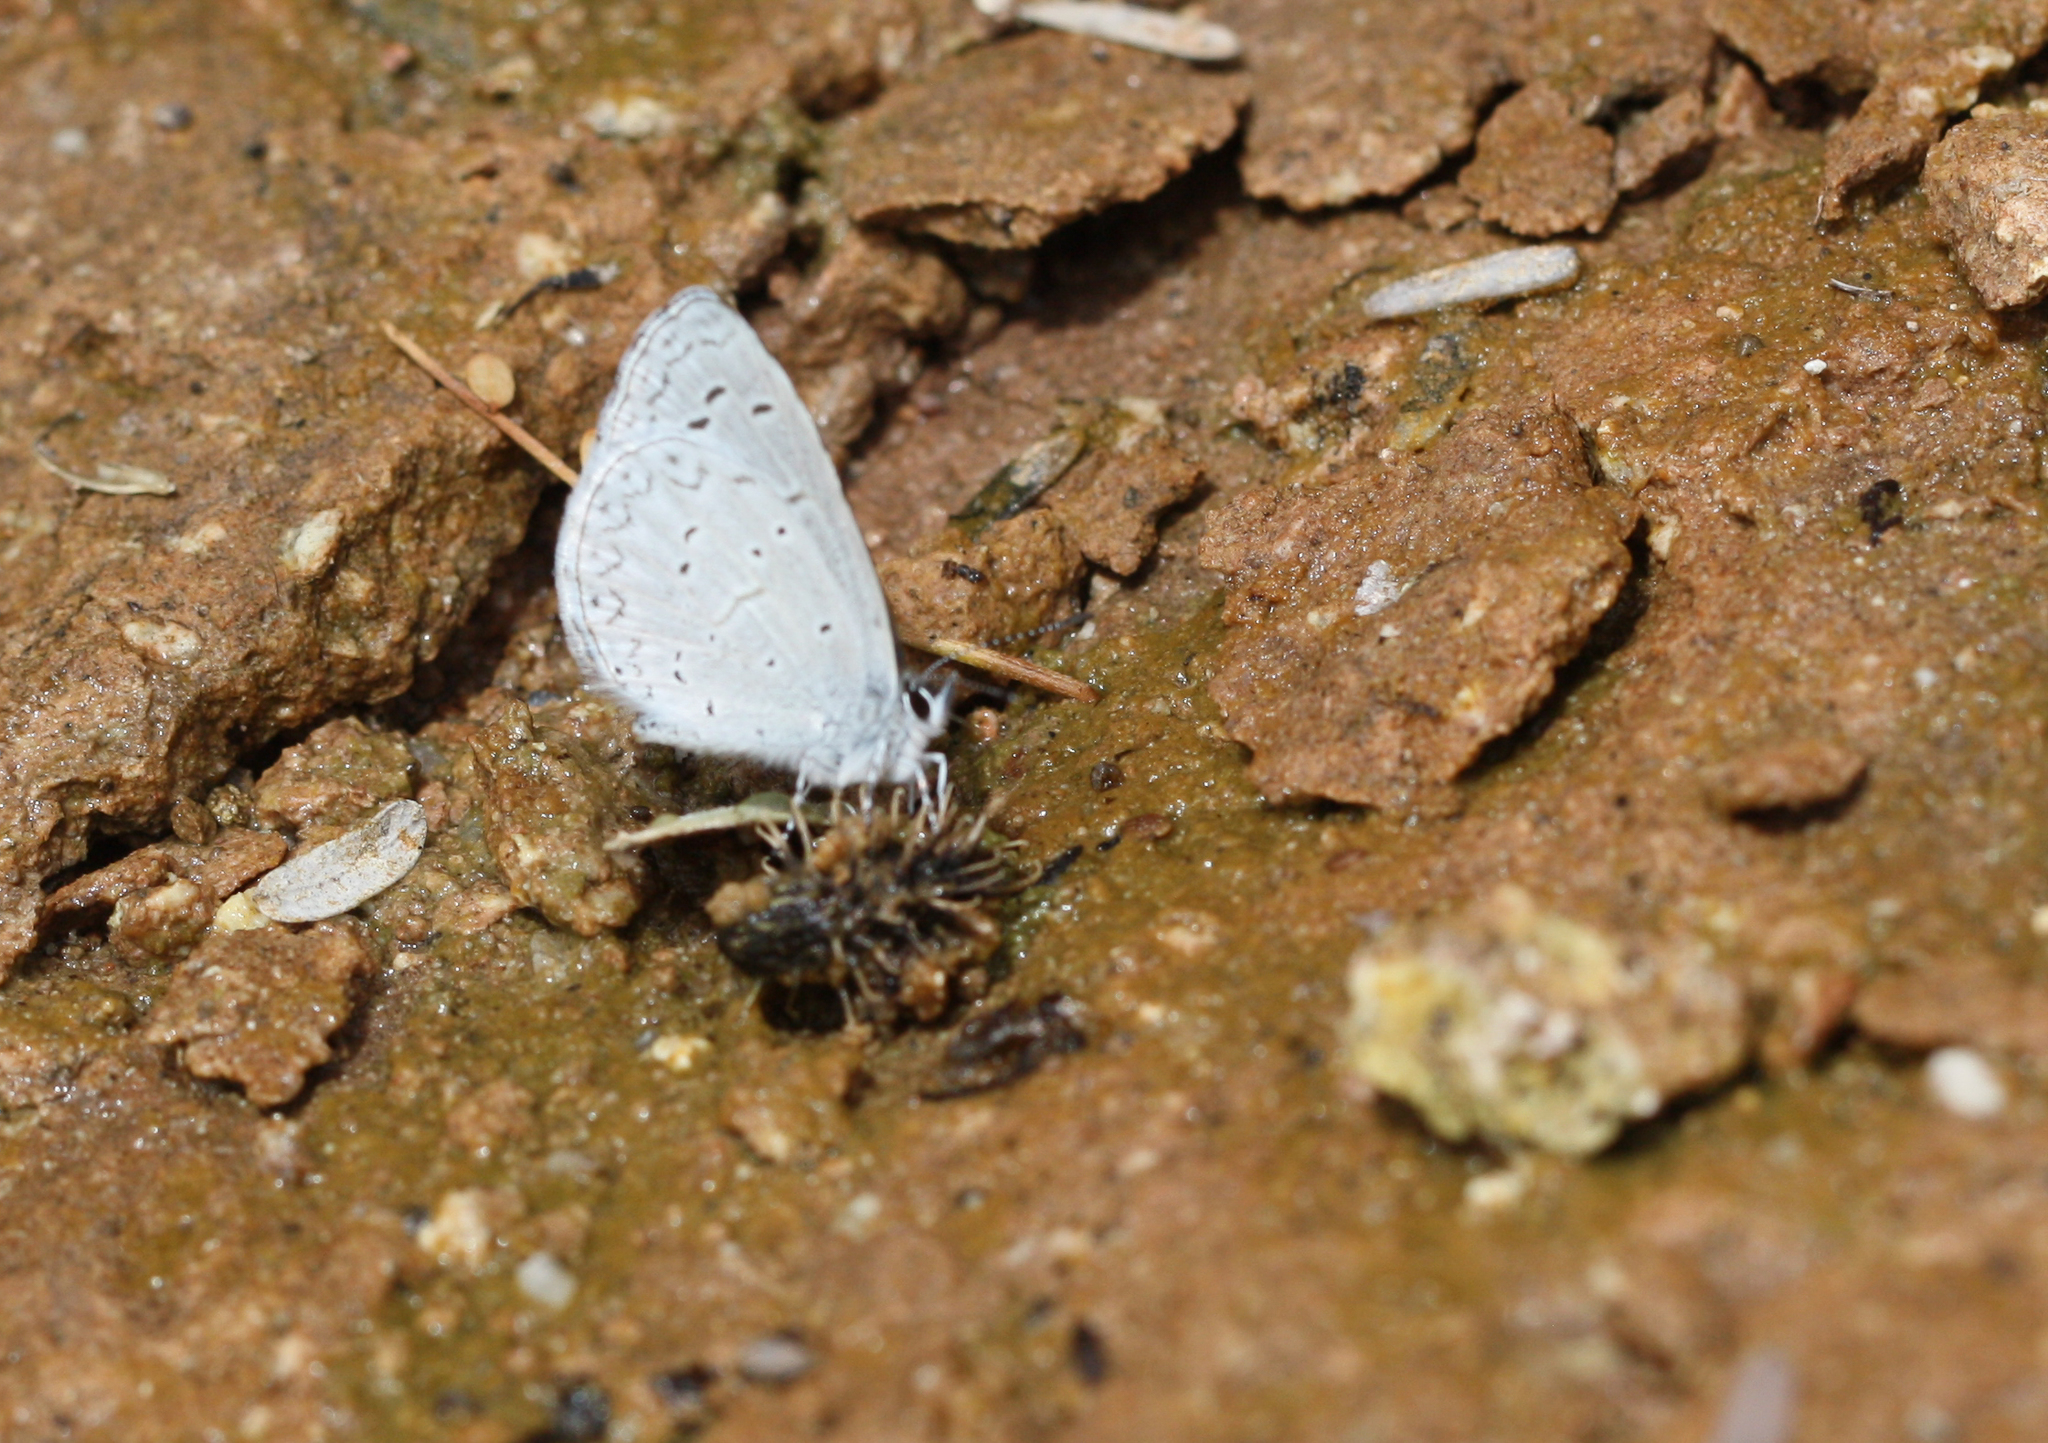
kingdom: Animalia
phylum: Arthropoda
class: Insecta
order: Lepidoptera
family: Lycaenidae
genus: Celastrina
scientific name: Celastrina ladon
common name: Spring azure
